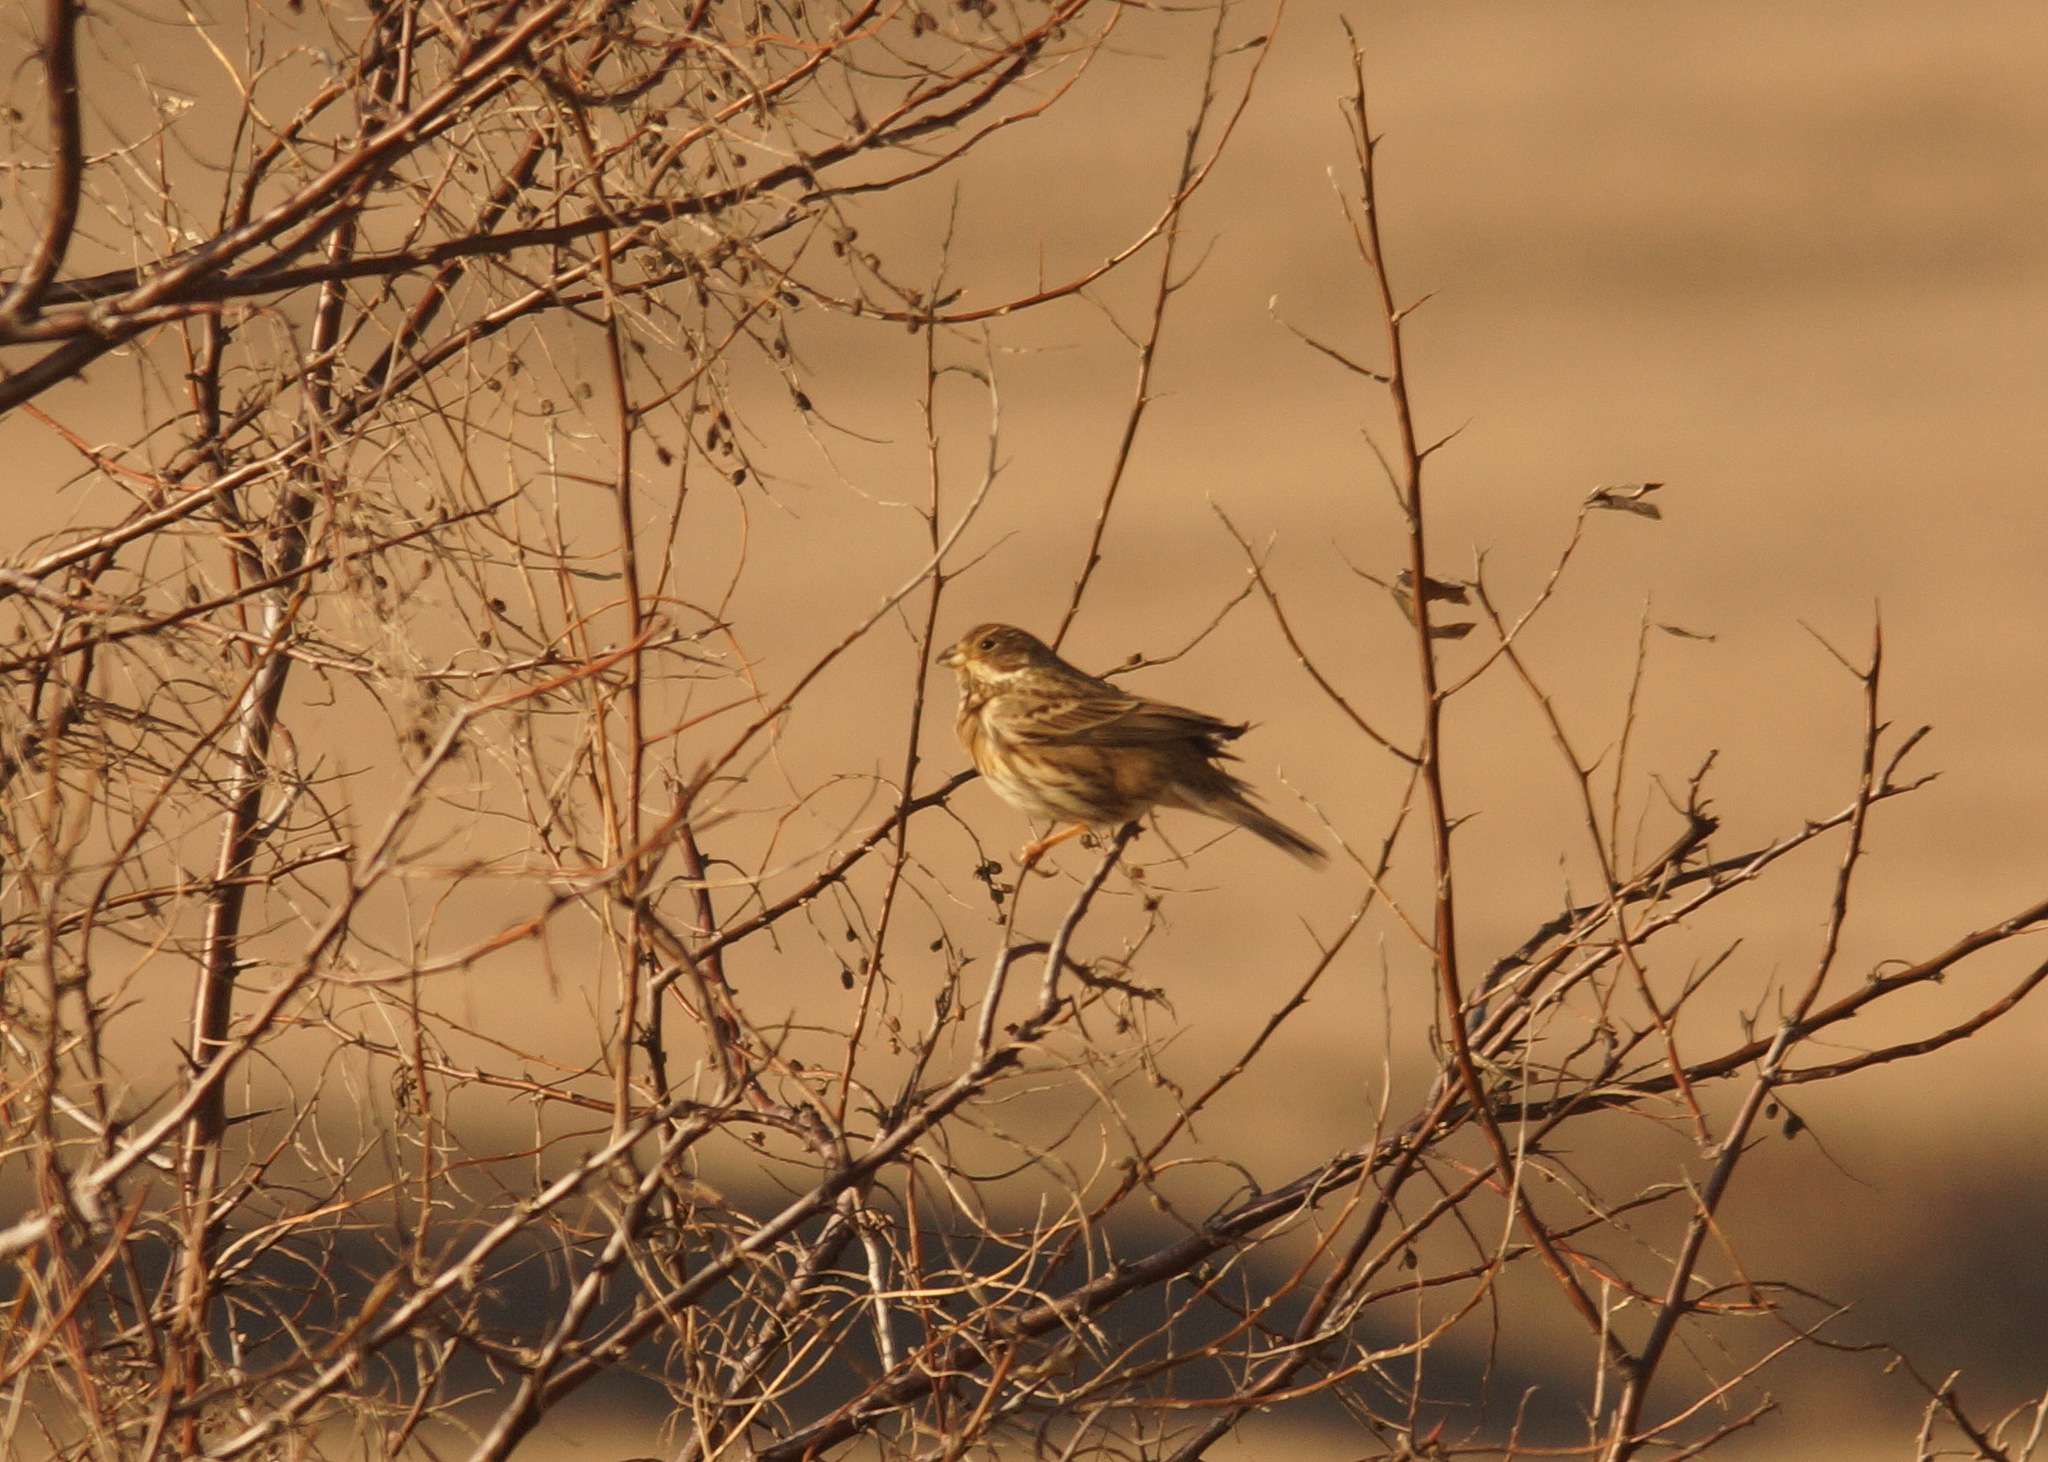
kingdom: Animalia
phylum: Chordata
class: Aves
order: Passeriformes
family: Emberizidae
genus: Emberiza
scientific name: Emberiza calandra
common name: Corn bunting
